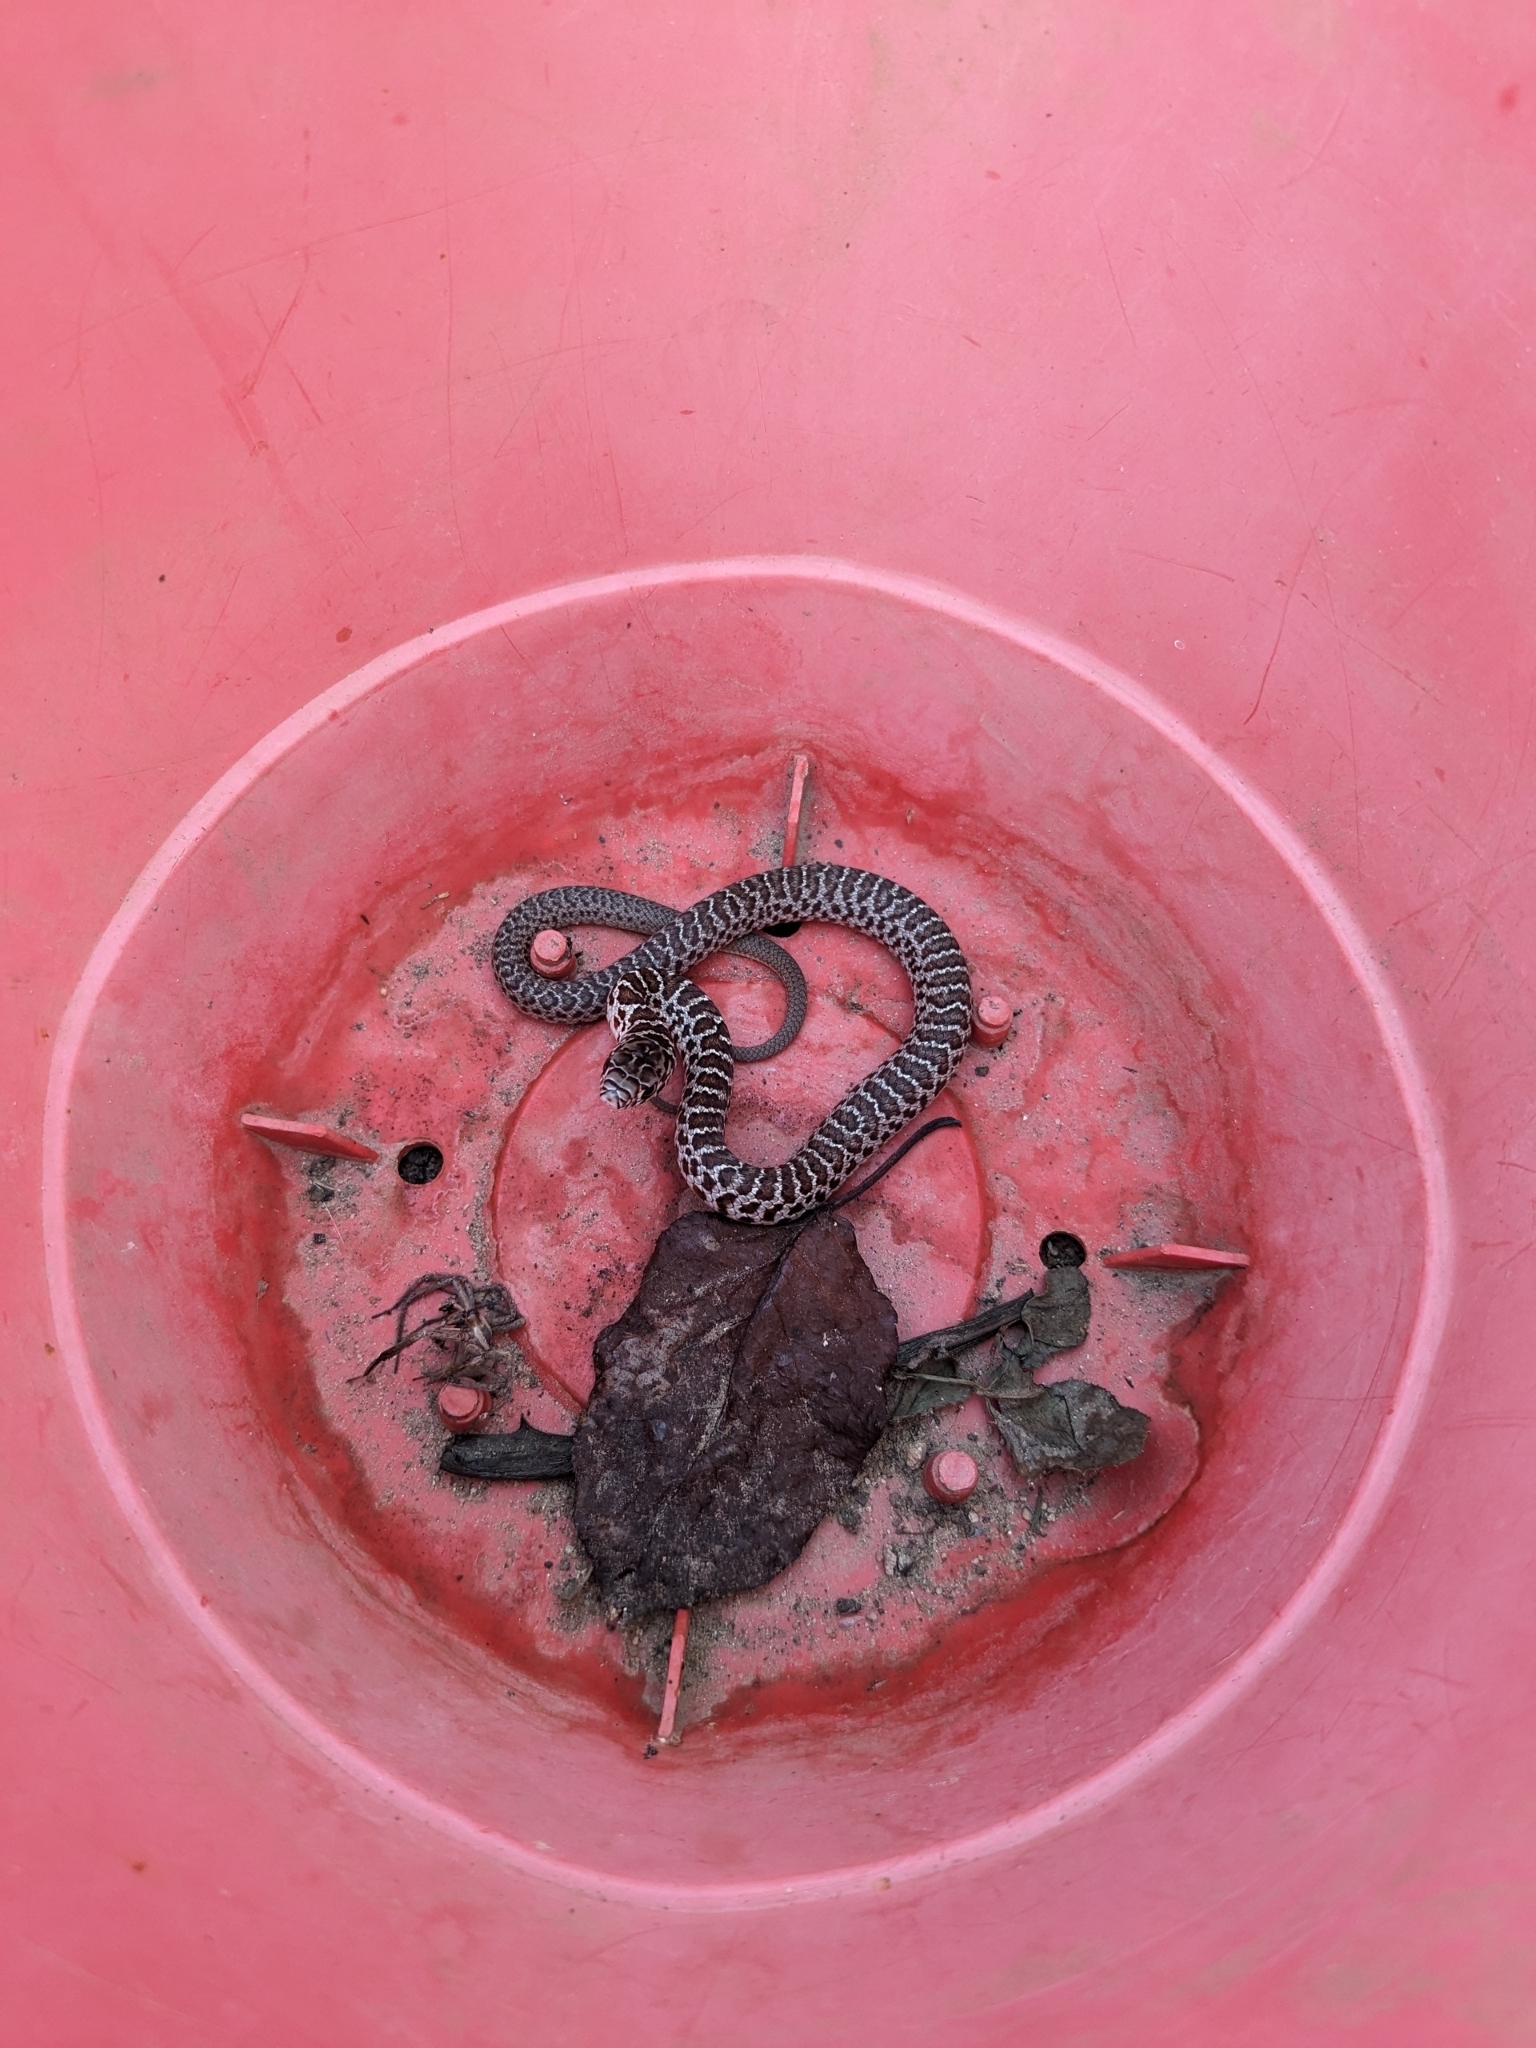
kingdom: Animalia
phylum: Chordata
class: Squamata
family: Colubridae
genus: Coluber
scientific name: Coluber constrictor
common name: Eastern racer
